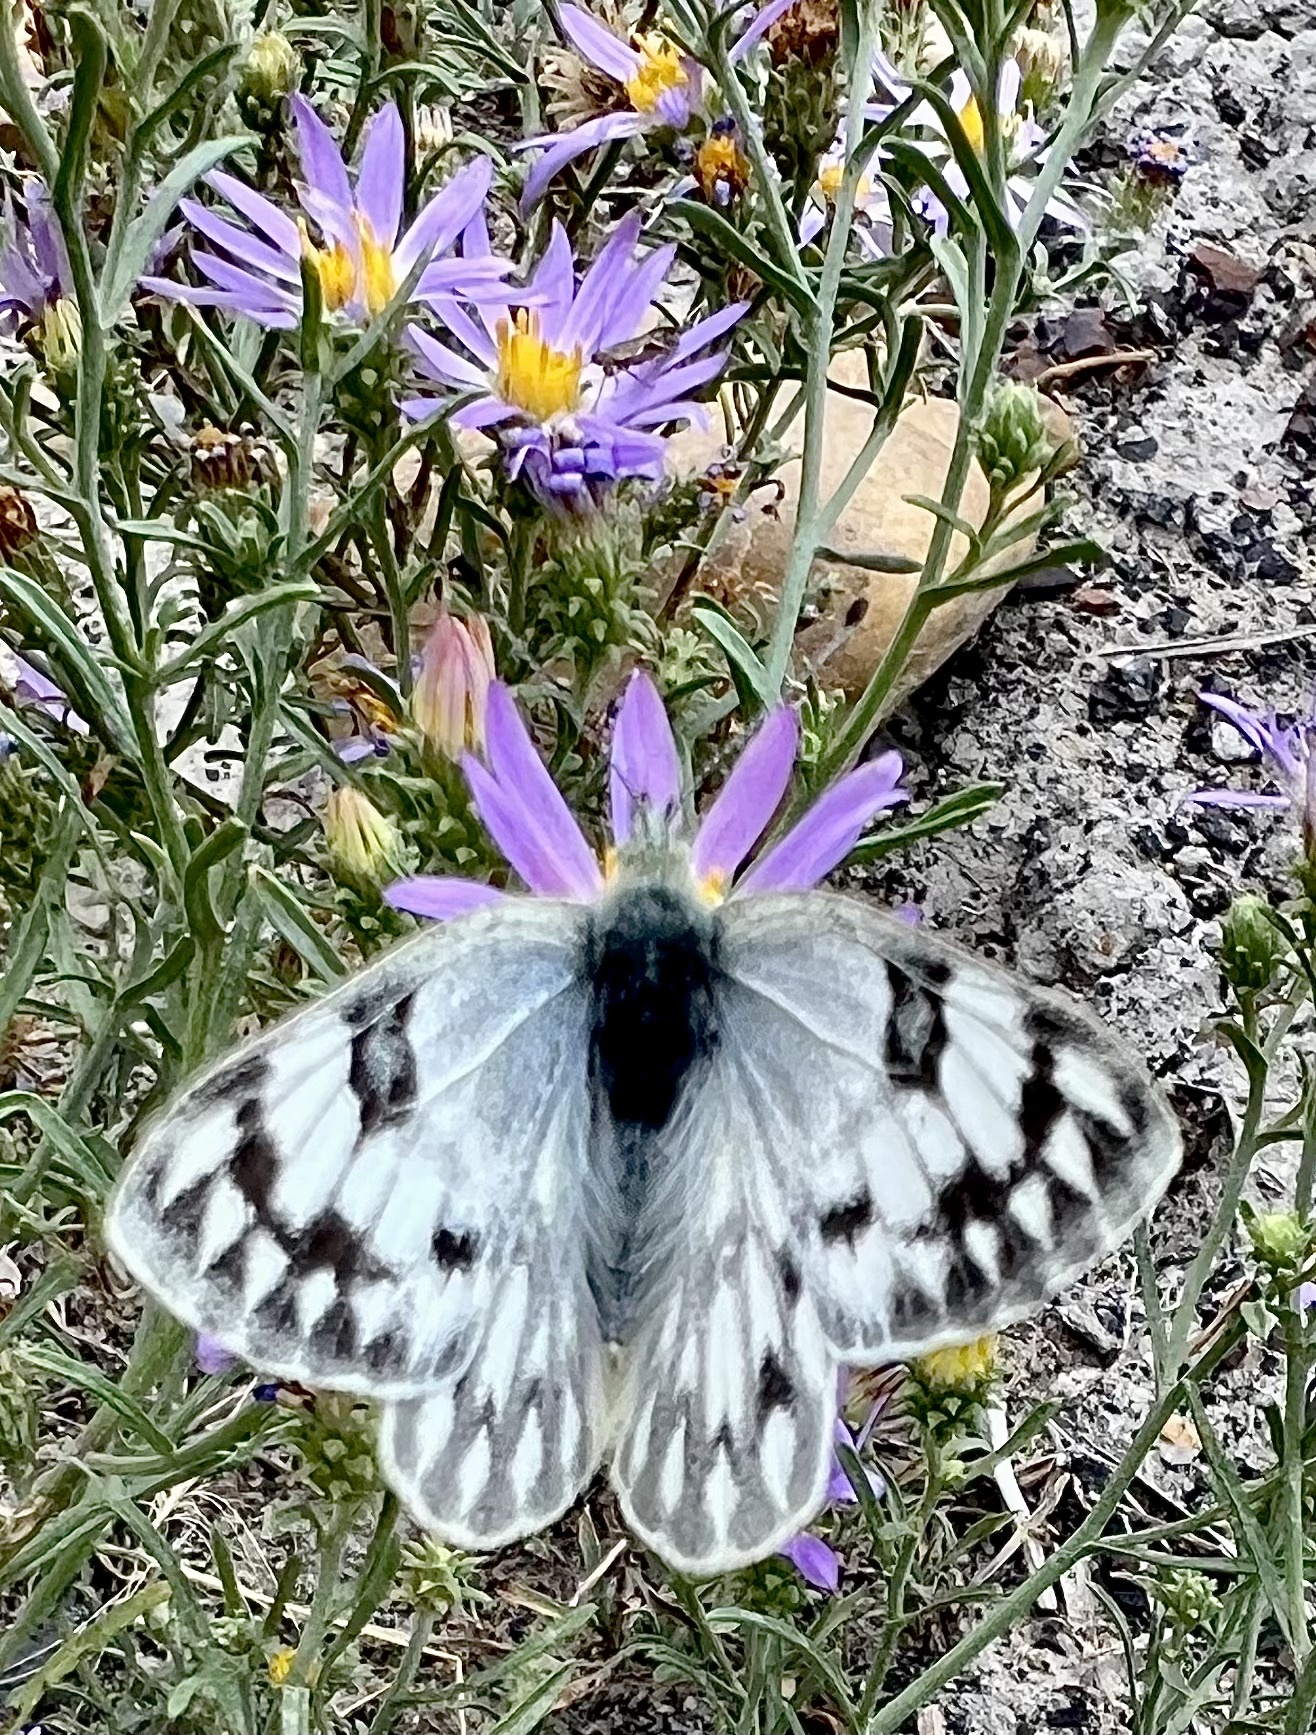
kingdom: Animalia
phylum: Arthropoda
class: Insecta
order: Lepidoptera
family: Pieridae
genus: Pontia
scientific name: Pontia occidentalis
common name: Western white
